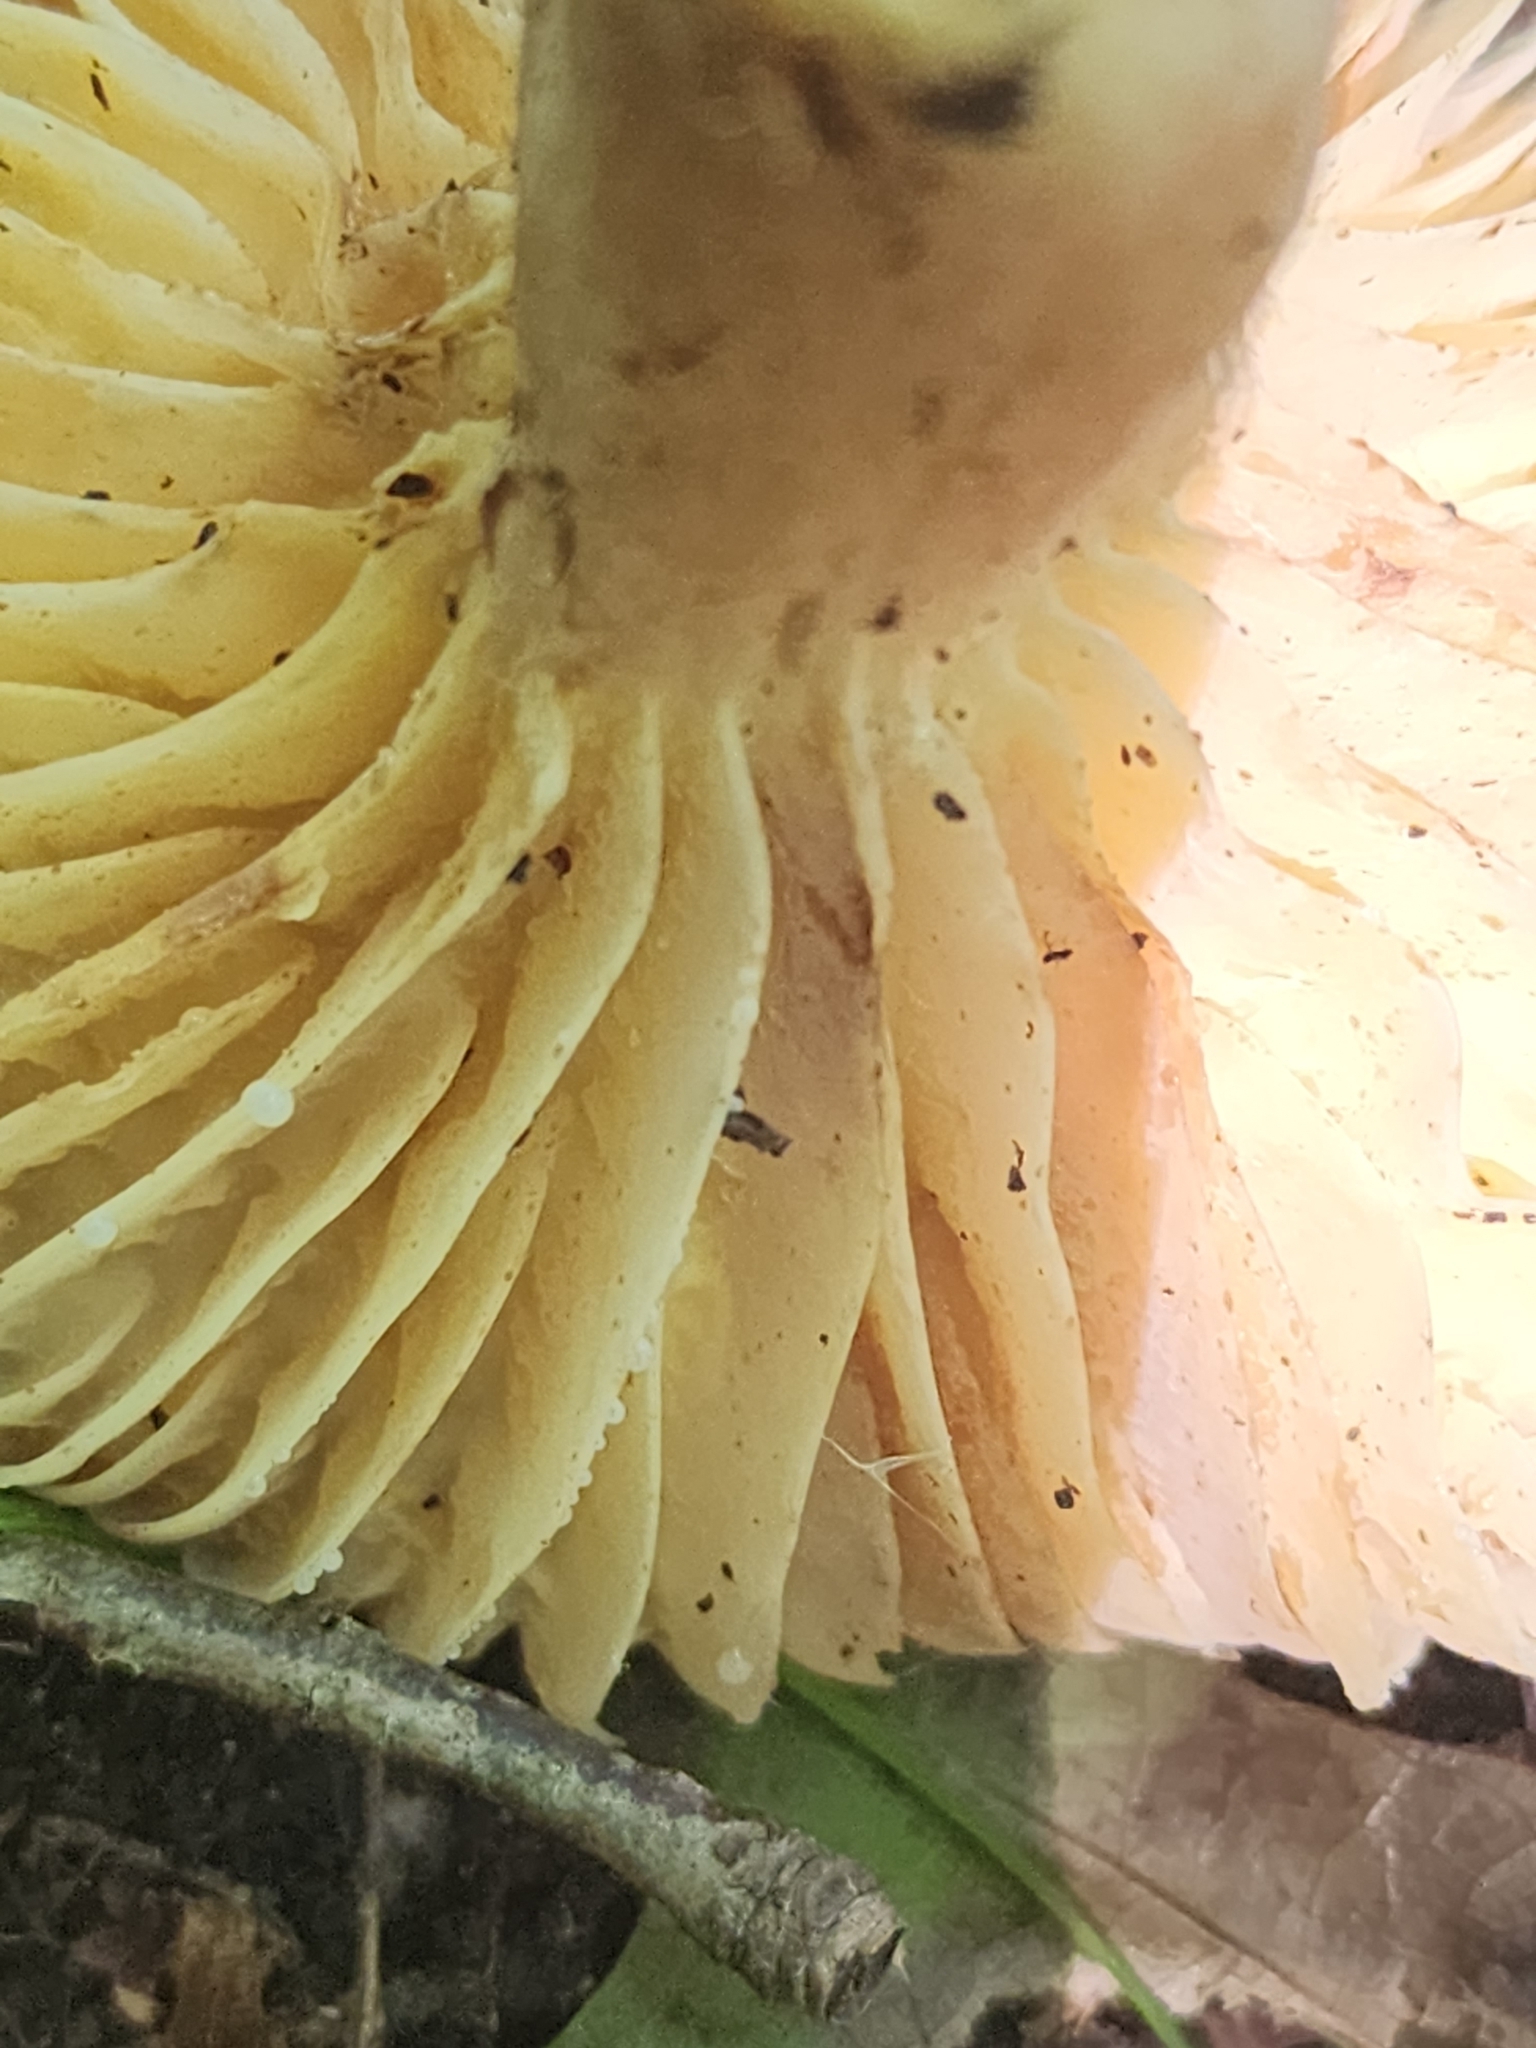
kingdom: Fungi
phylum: Basidiomycota
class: Agaricomycetes
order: Russulales
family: Russulaceae
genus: Lactarius
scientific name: Lactarius hygrophoroides
